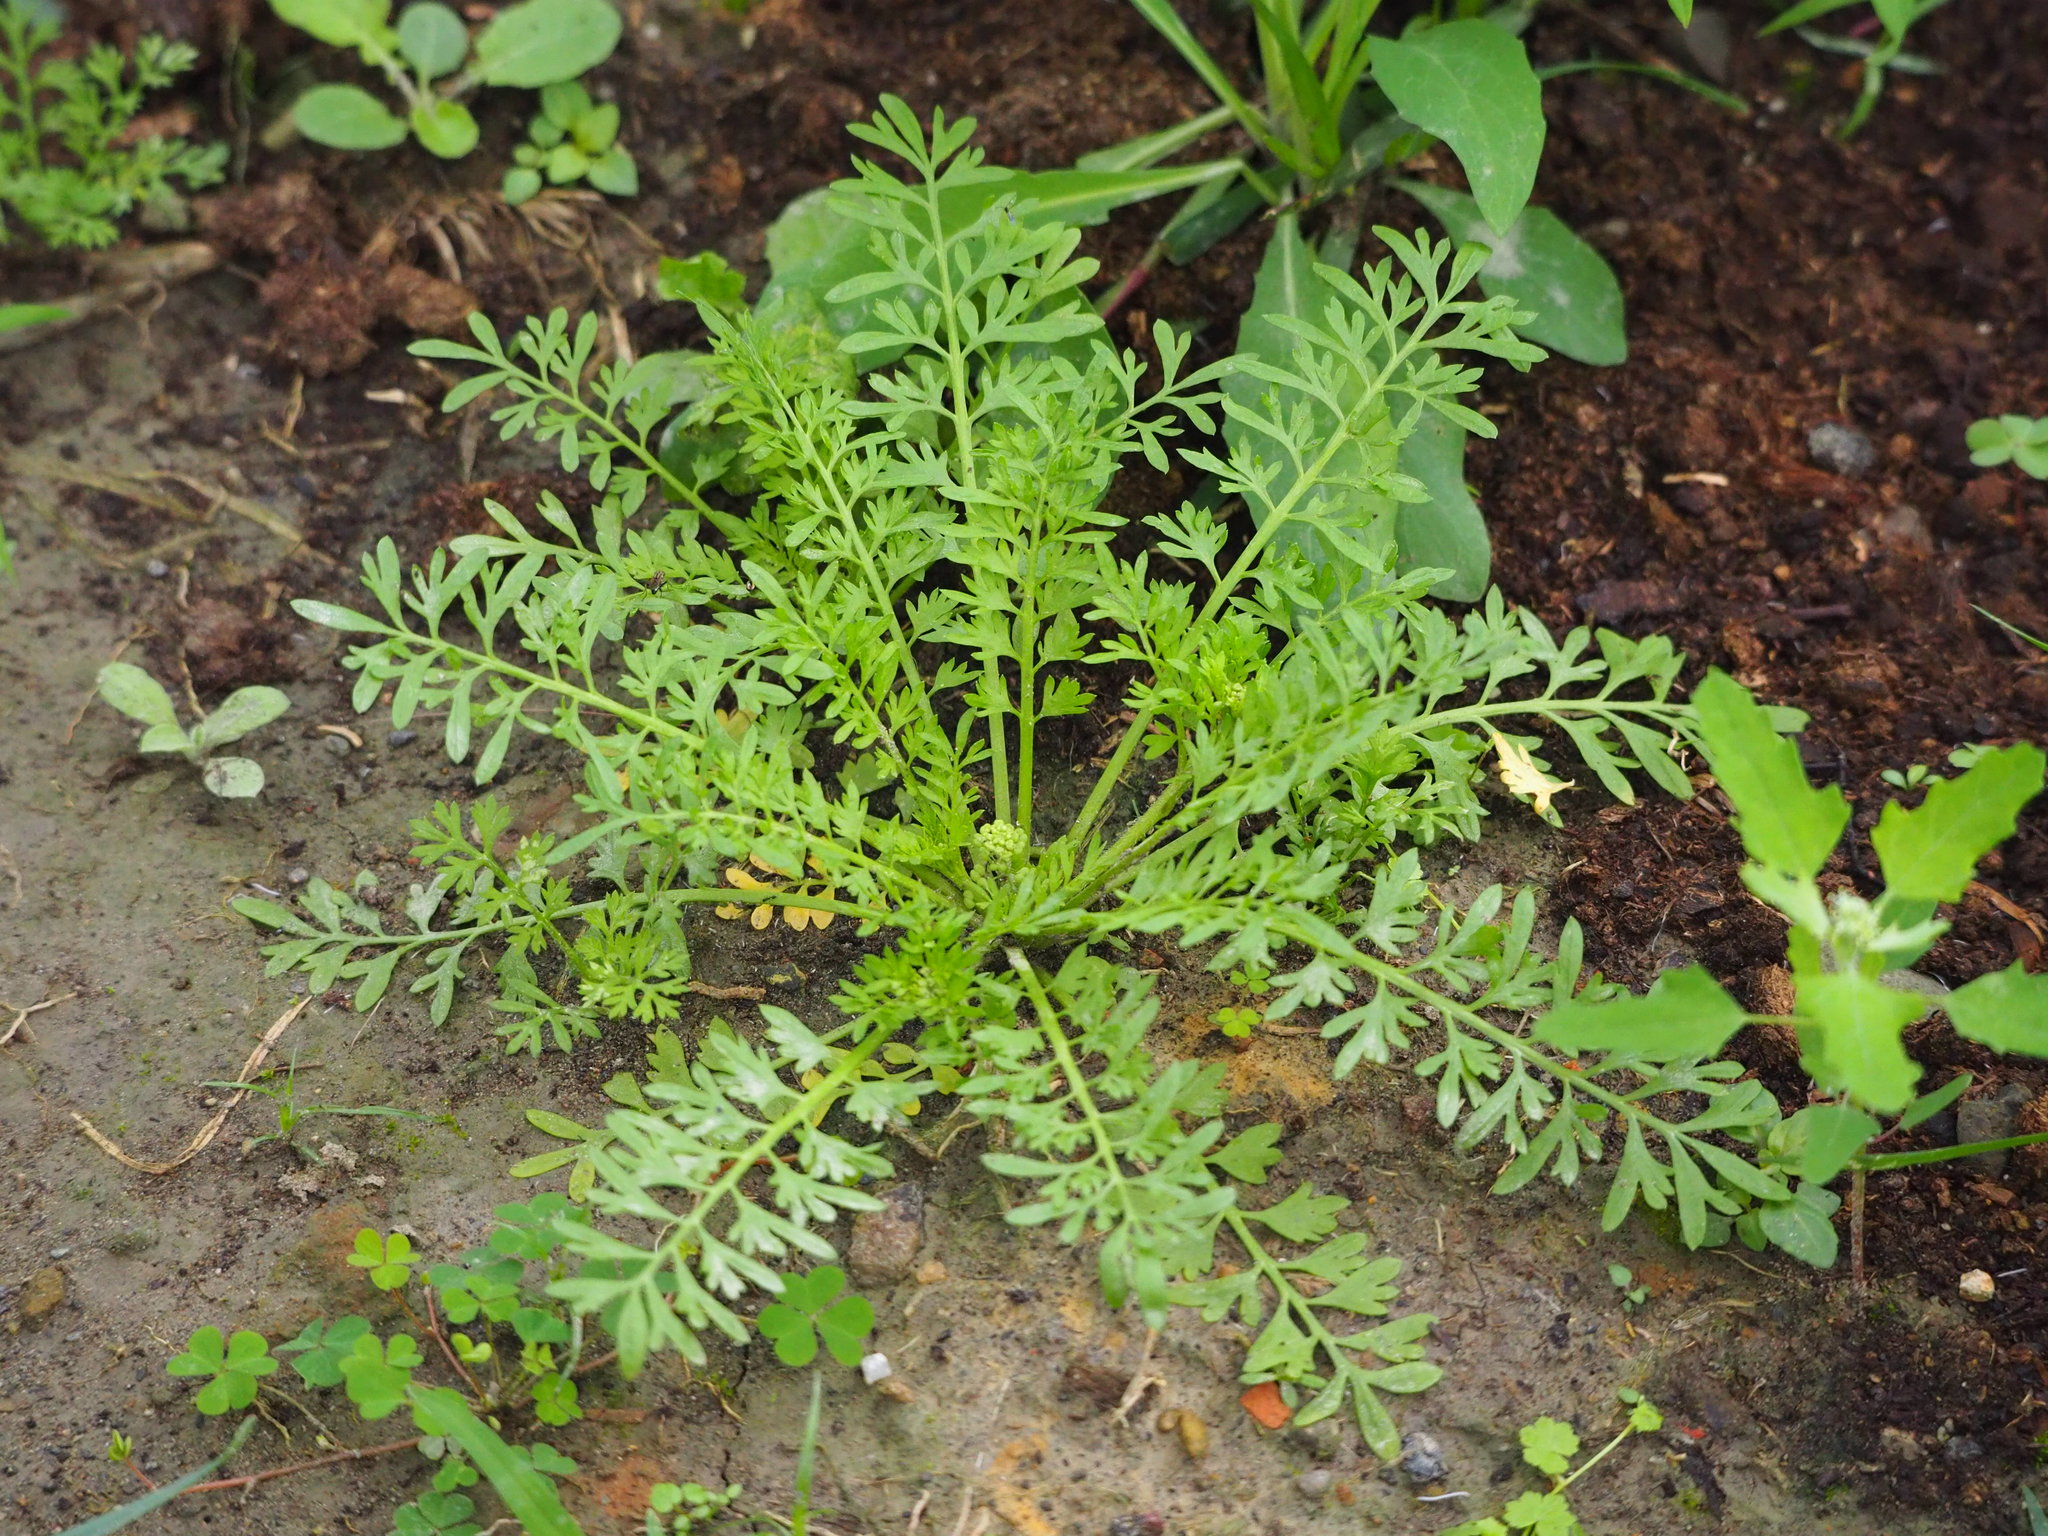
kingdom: Plantae
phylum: Tracheophyta
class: Magnoliopsida
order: Brassicales
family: Brassicaceae
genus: Lepidium
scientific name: Lepidium didymum
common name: Lesser swinecress
